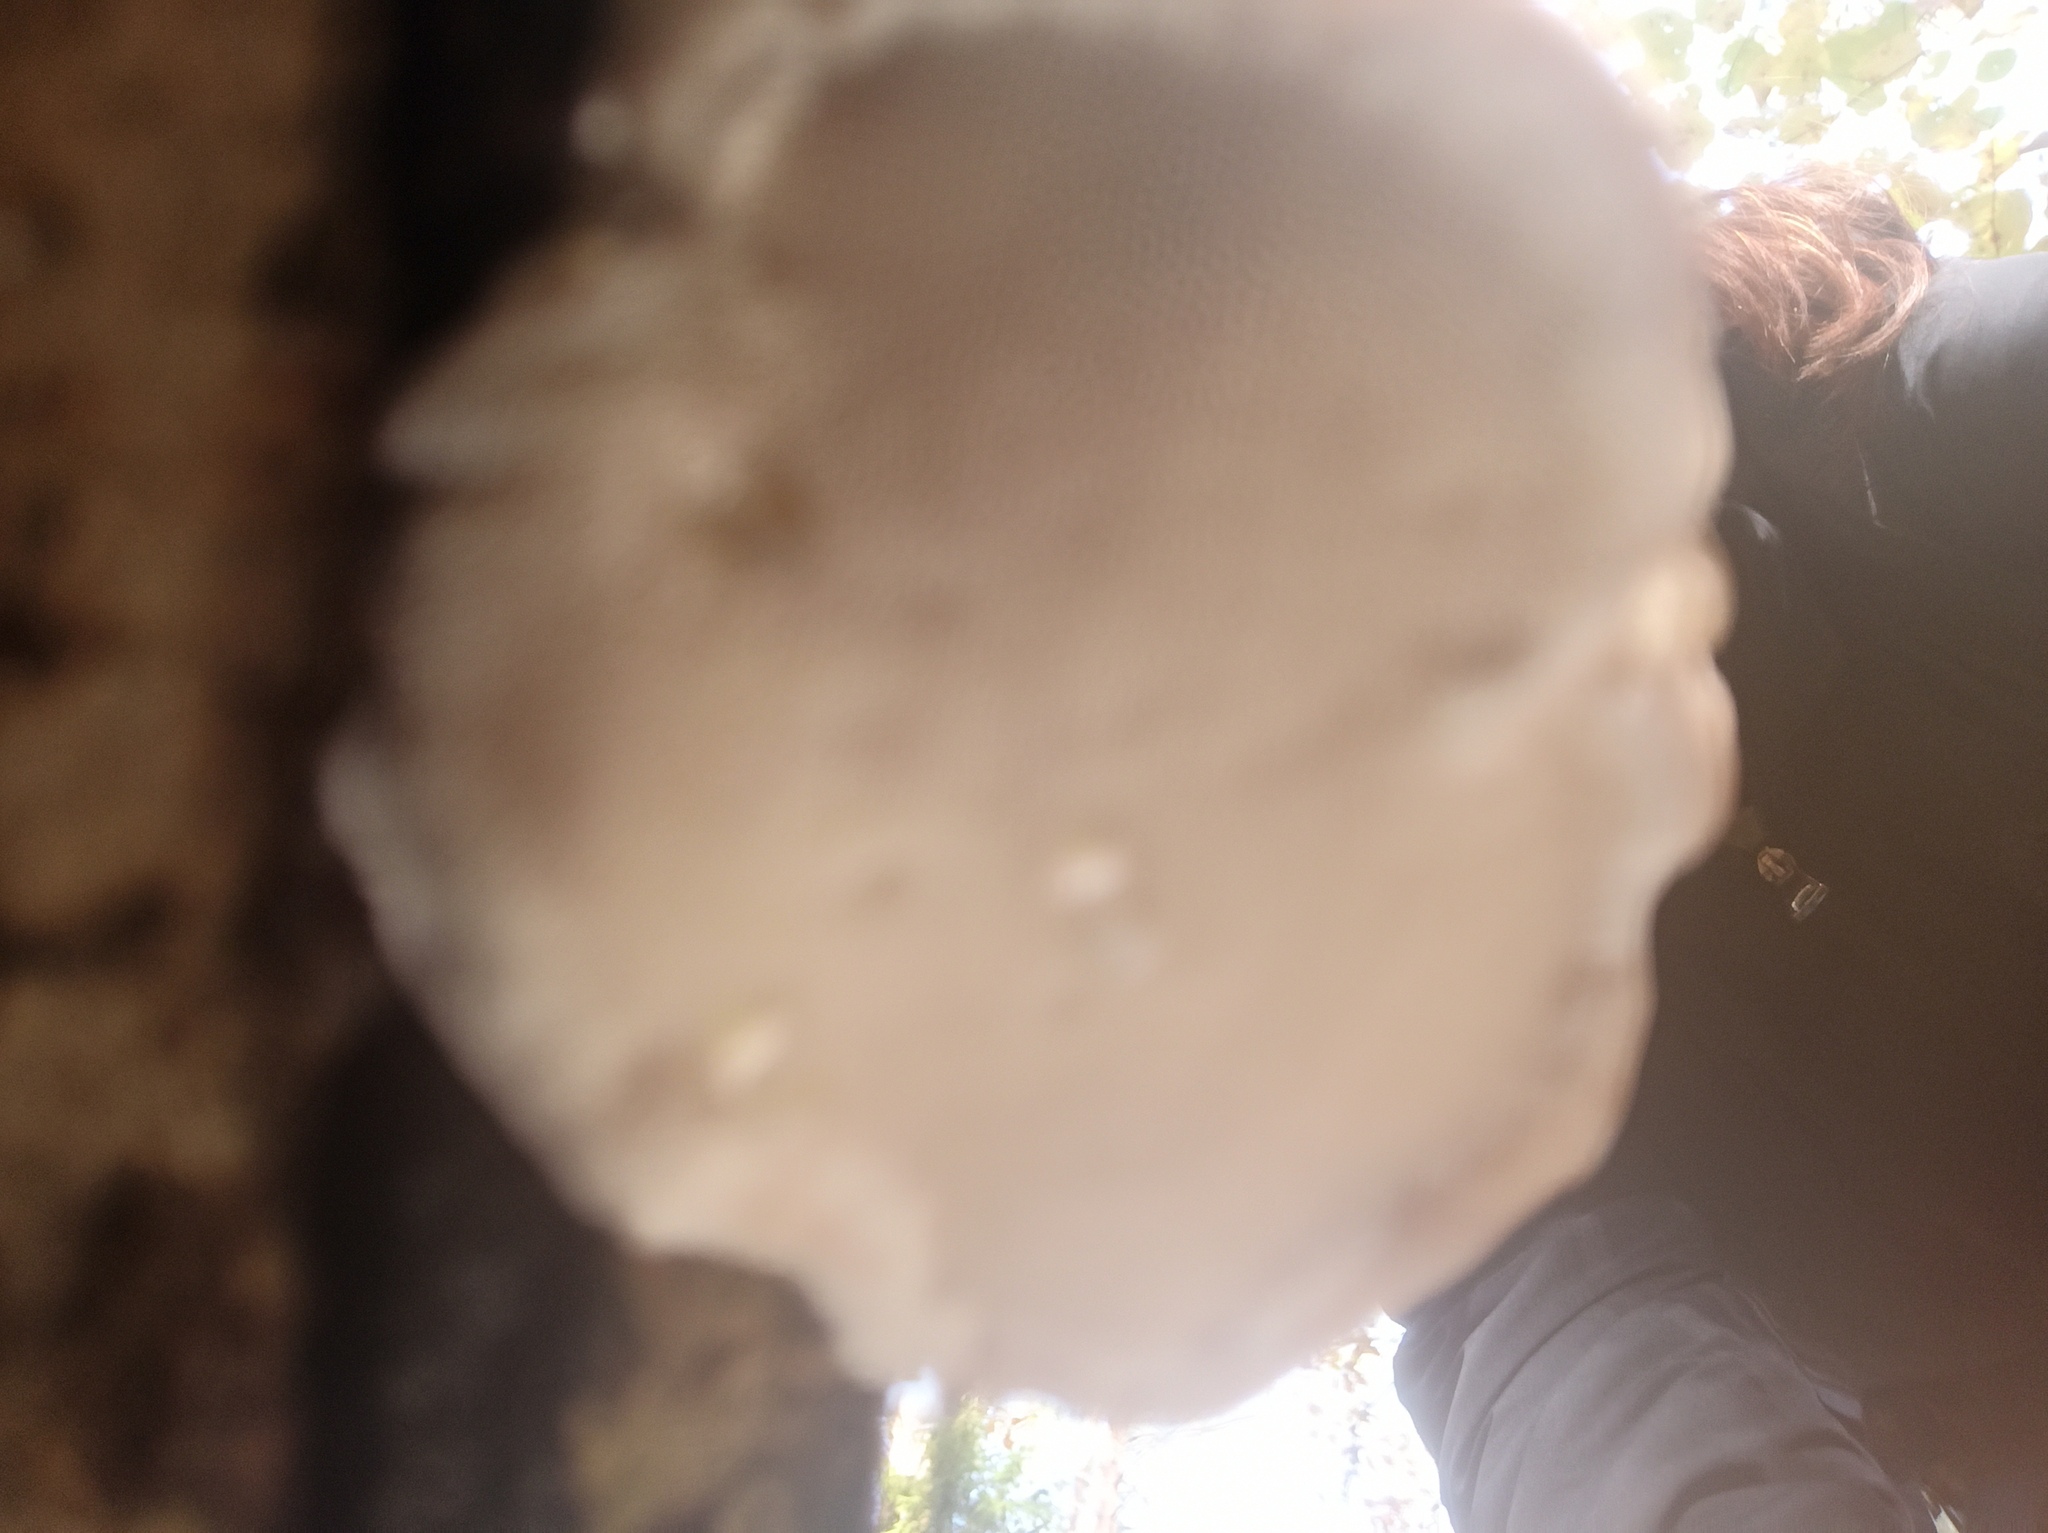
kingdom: Fungi
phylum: Basidiomycota
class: Agaricomycetes
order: Polyporales
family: Fomitopsidaceae
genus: Fomitopsis
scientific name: Fomitopsis pinicola
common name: Red-belted bracket
